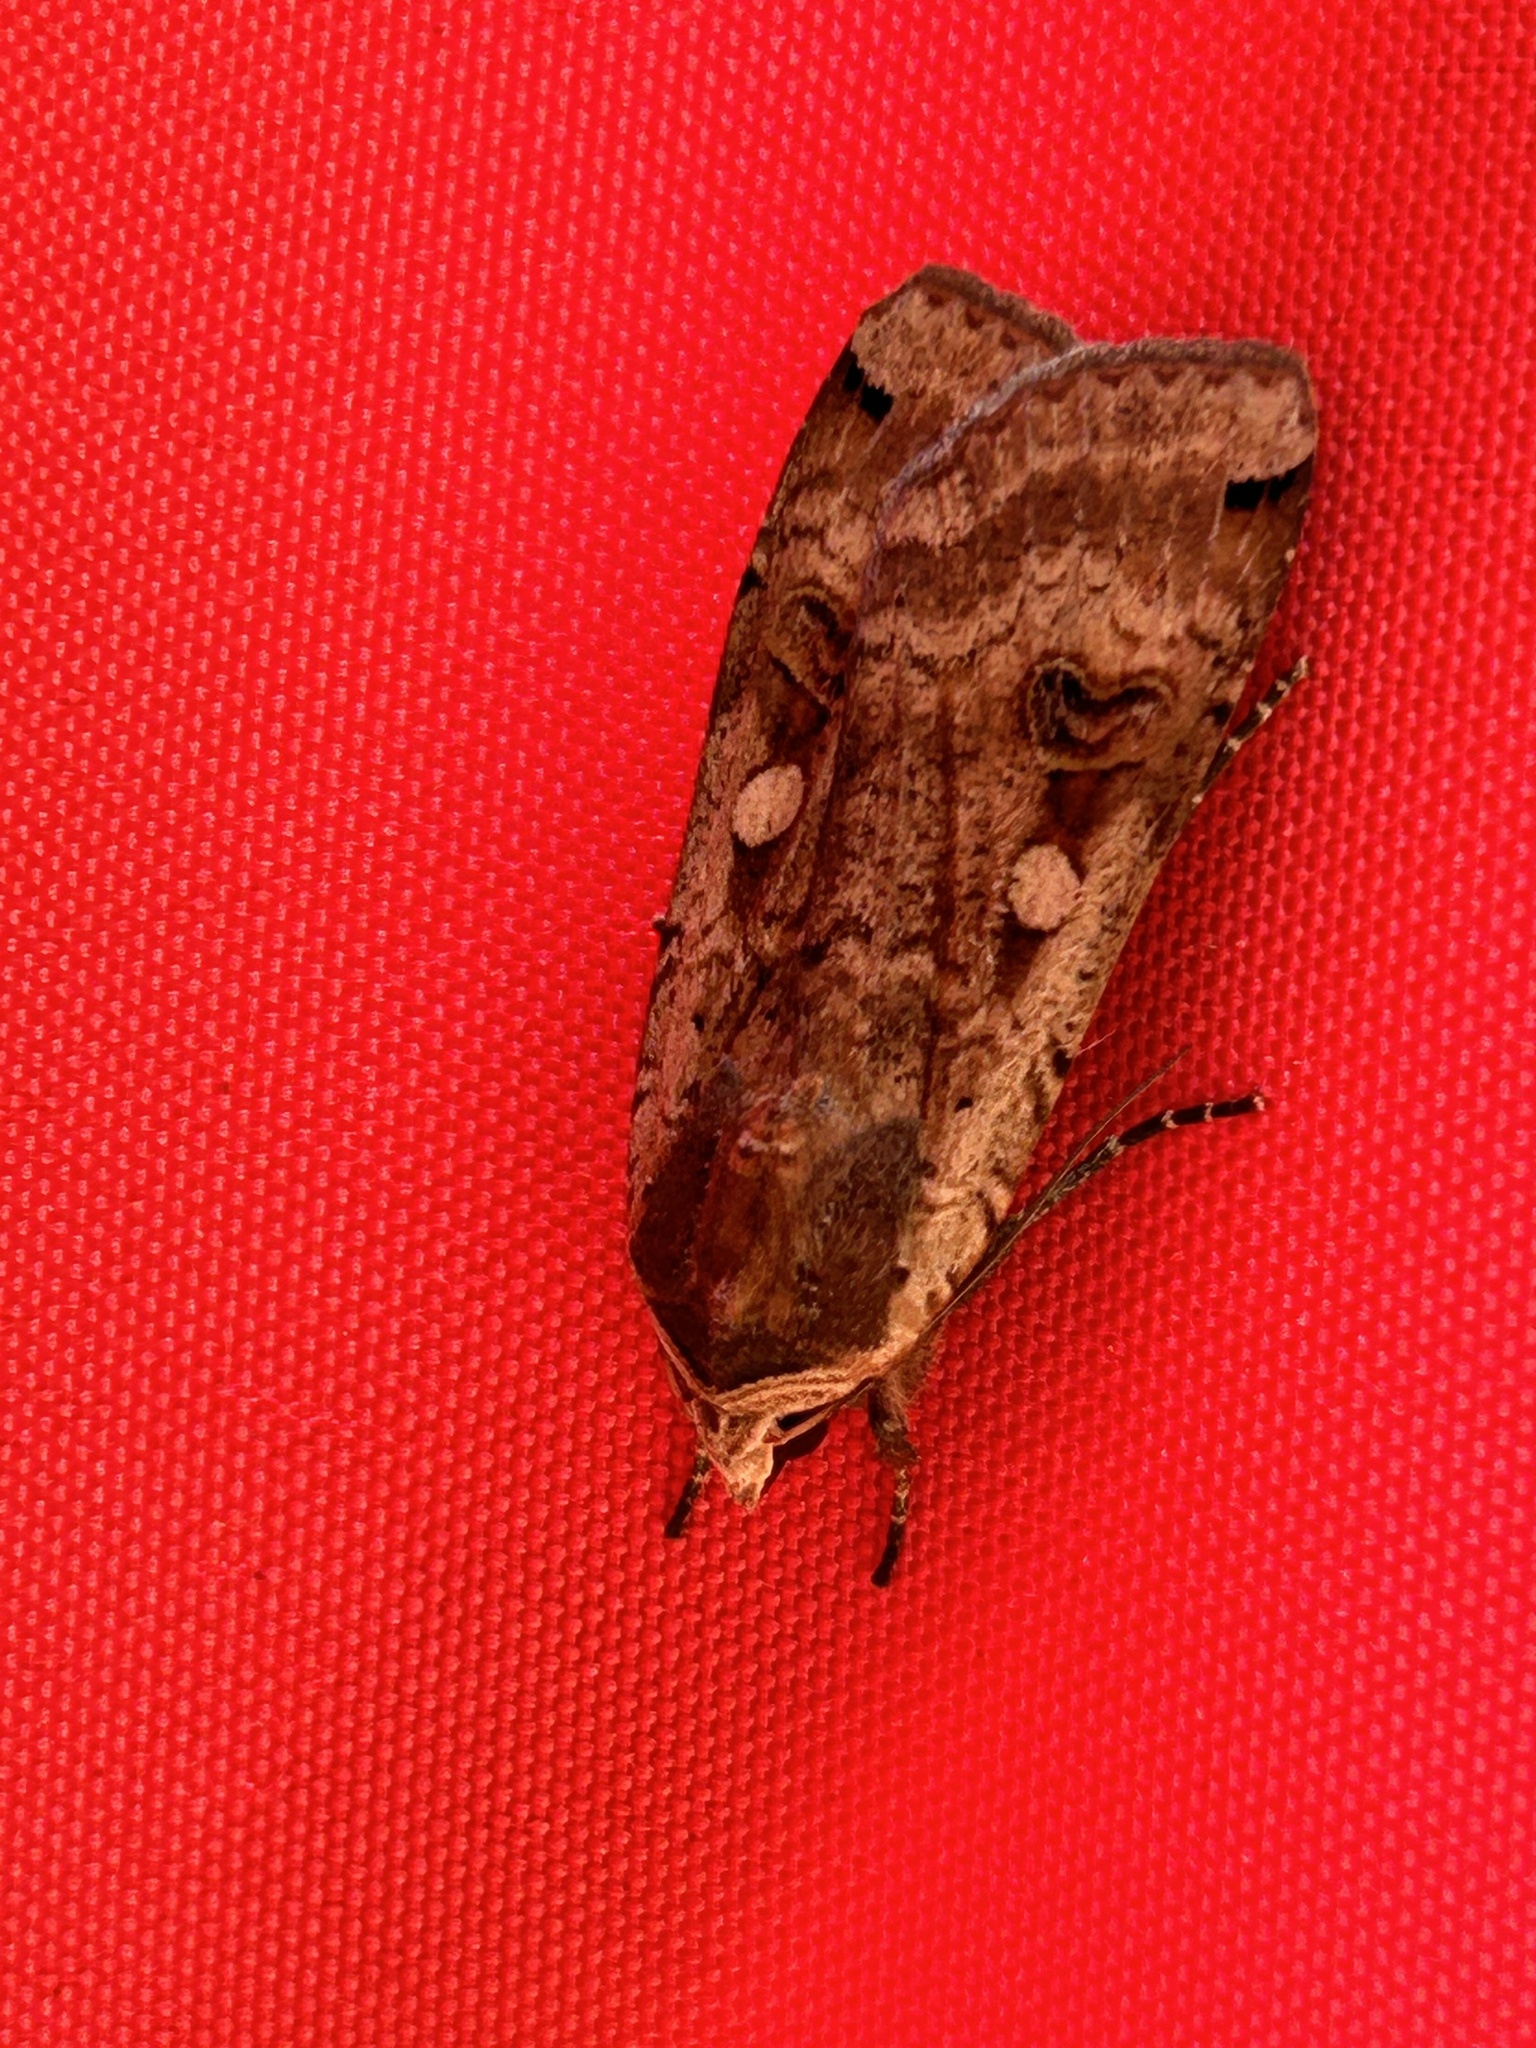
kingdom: Animalia
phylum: Arthropoda
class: Insecta
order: Lepidoptera
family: Noctuidae
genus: Noctua
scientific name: Noctua pronuba
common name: Large yellow underwing
